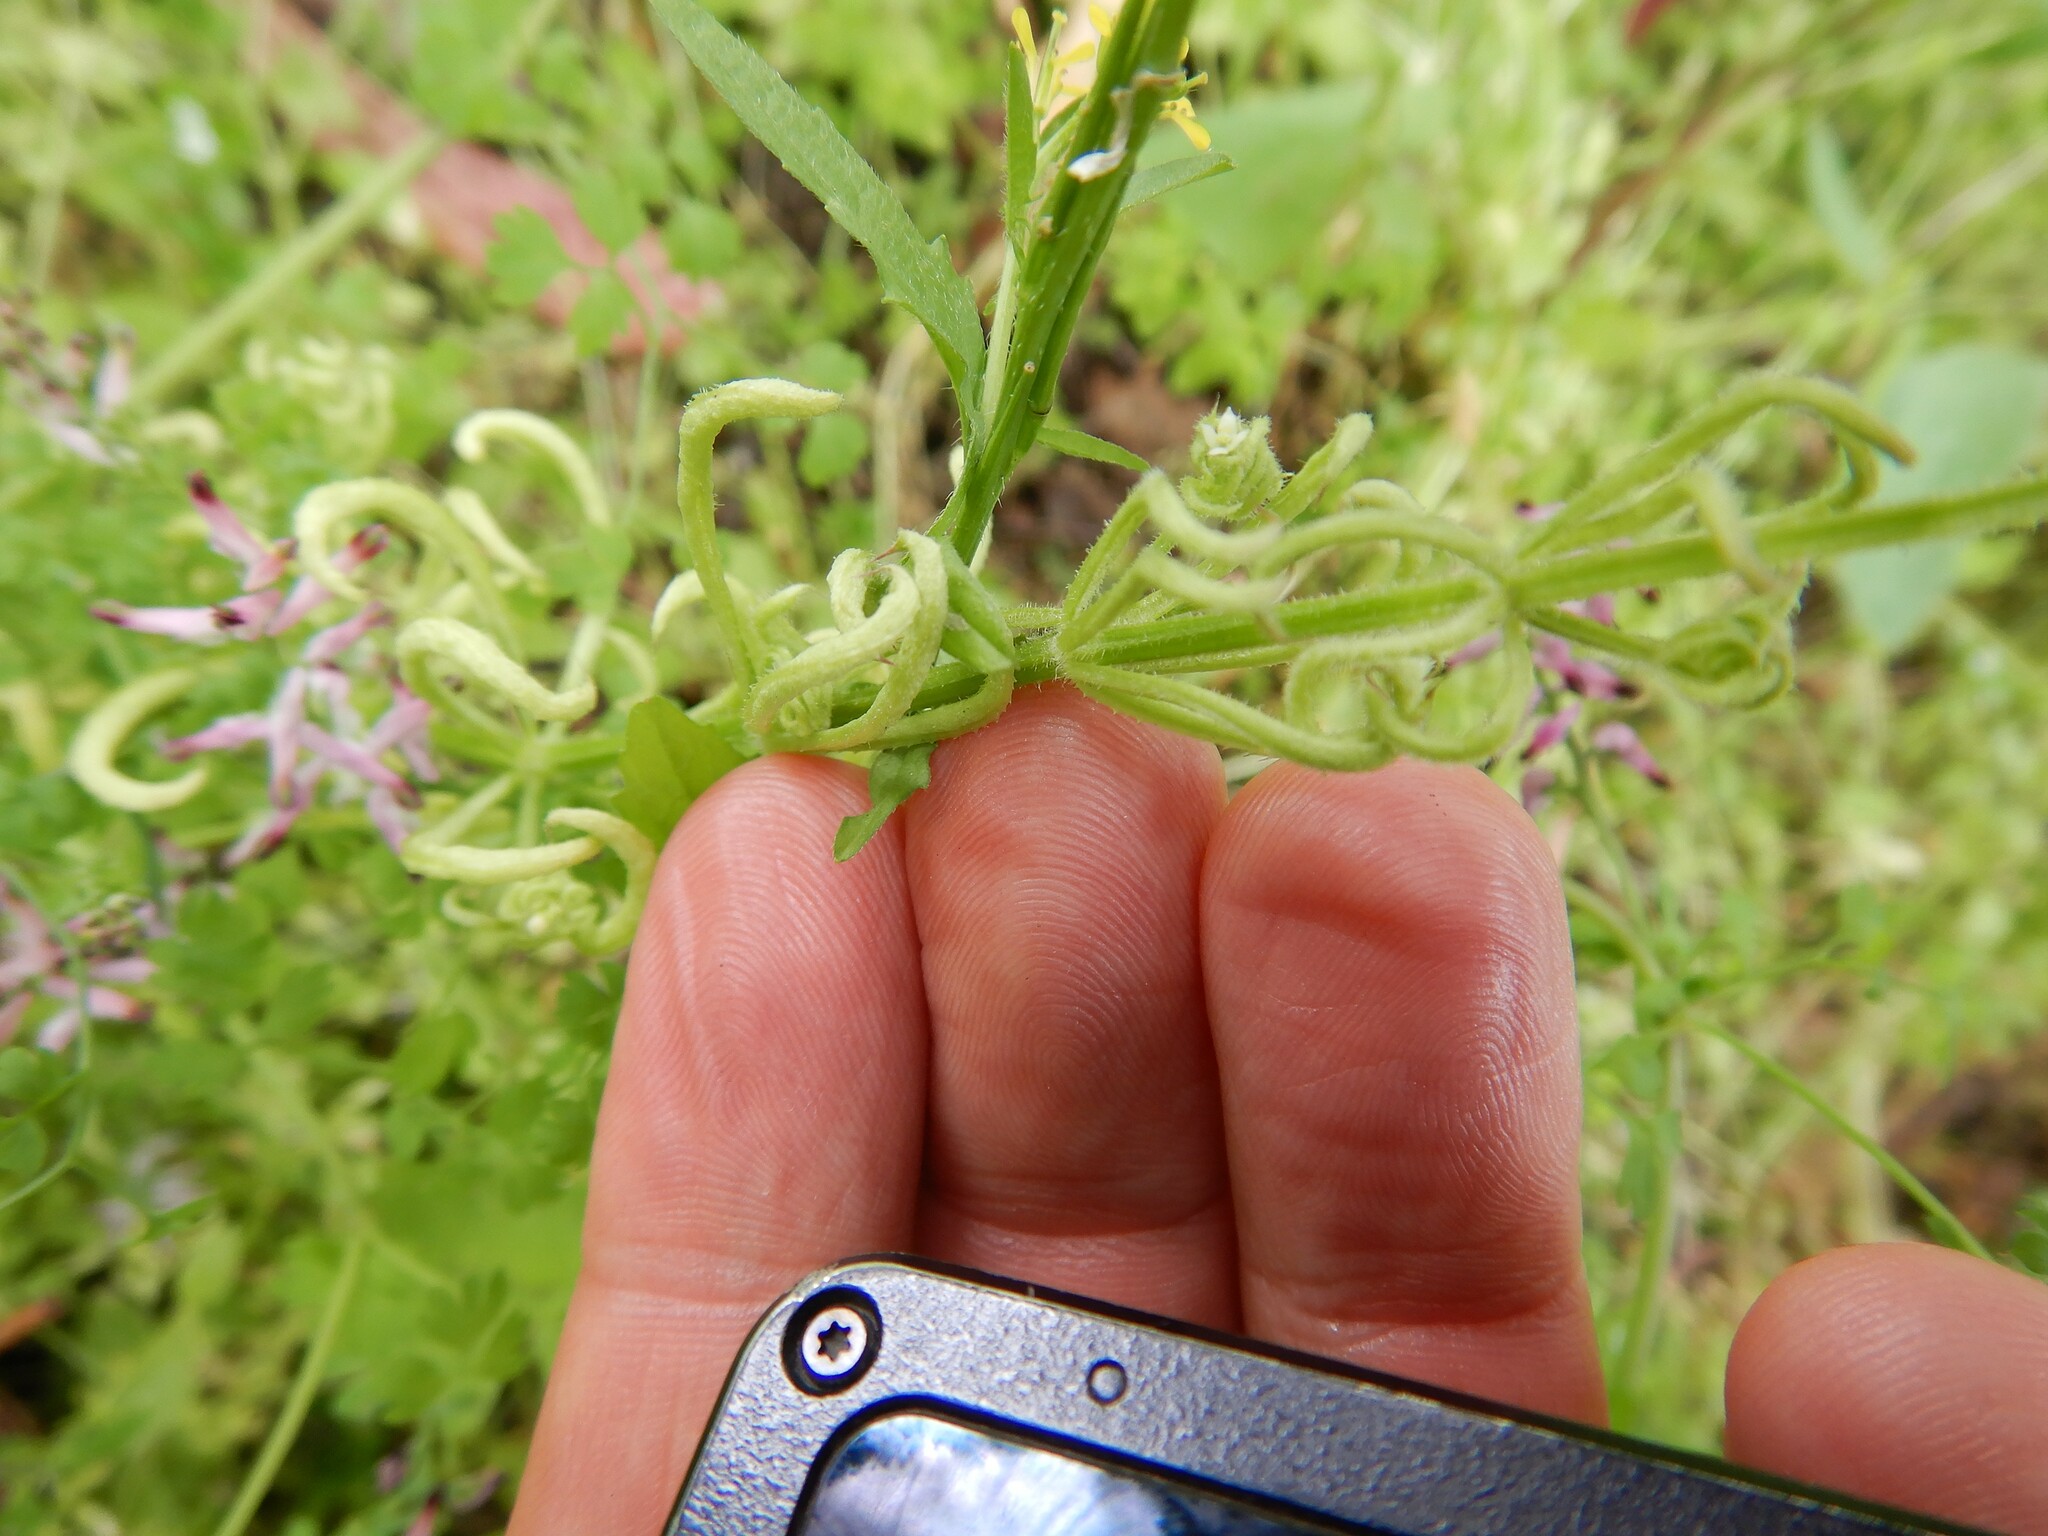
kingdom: Animalia
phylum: Arthropoda
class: Arachnida
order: Trombidiformes
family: Eriophyidae
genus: Cecidophyes
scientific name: Cecidophyes rouhollahi
